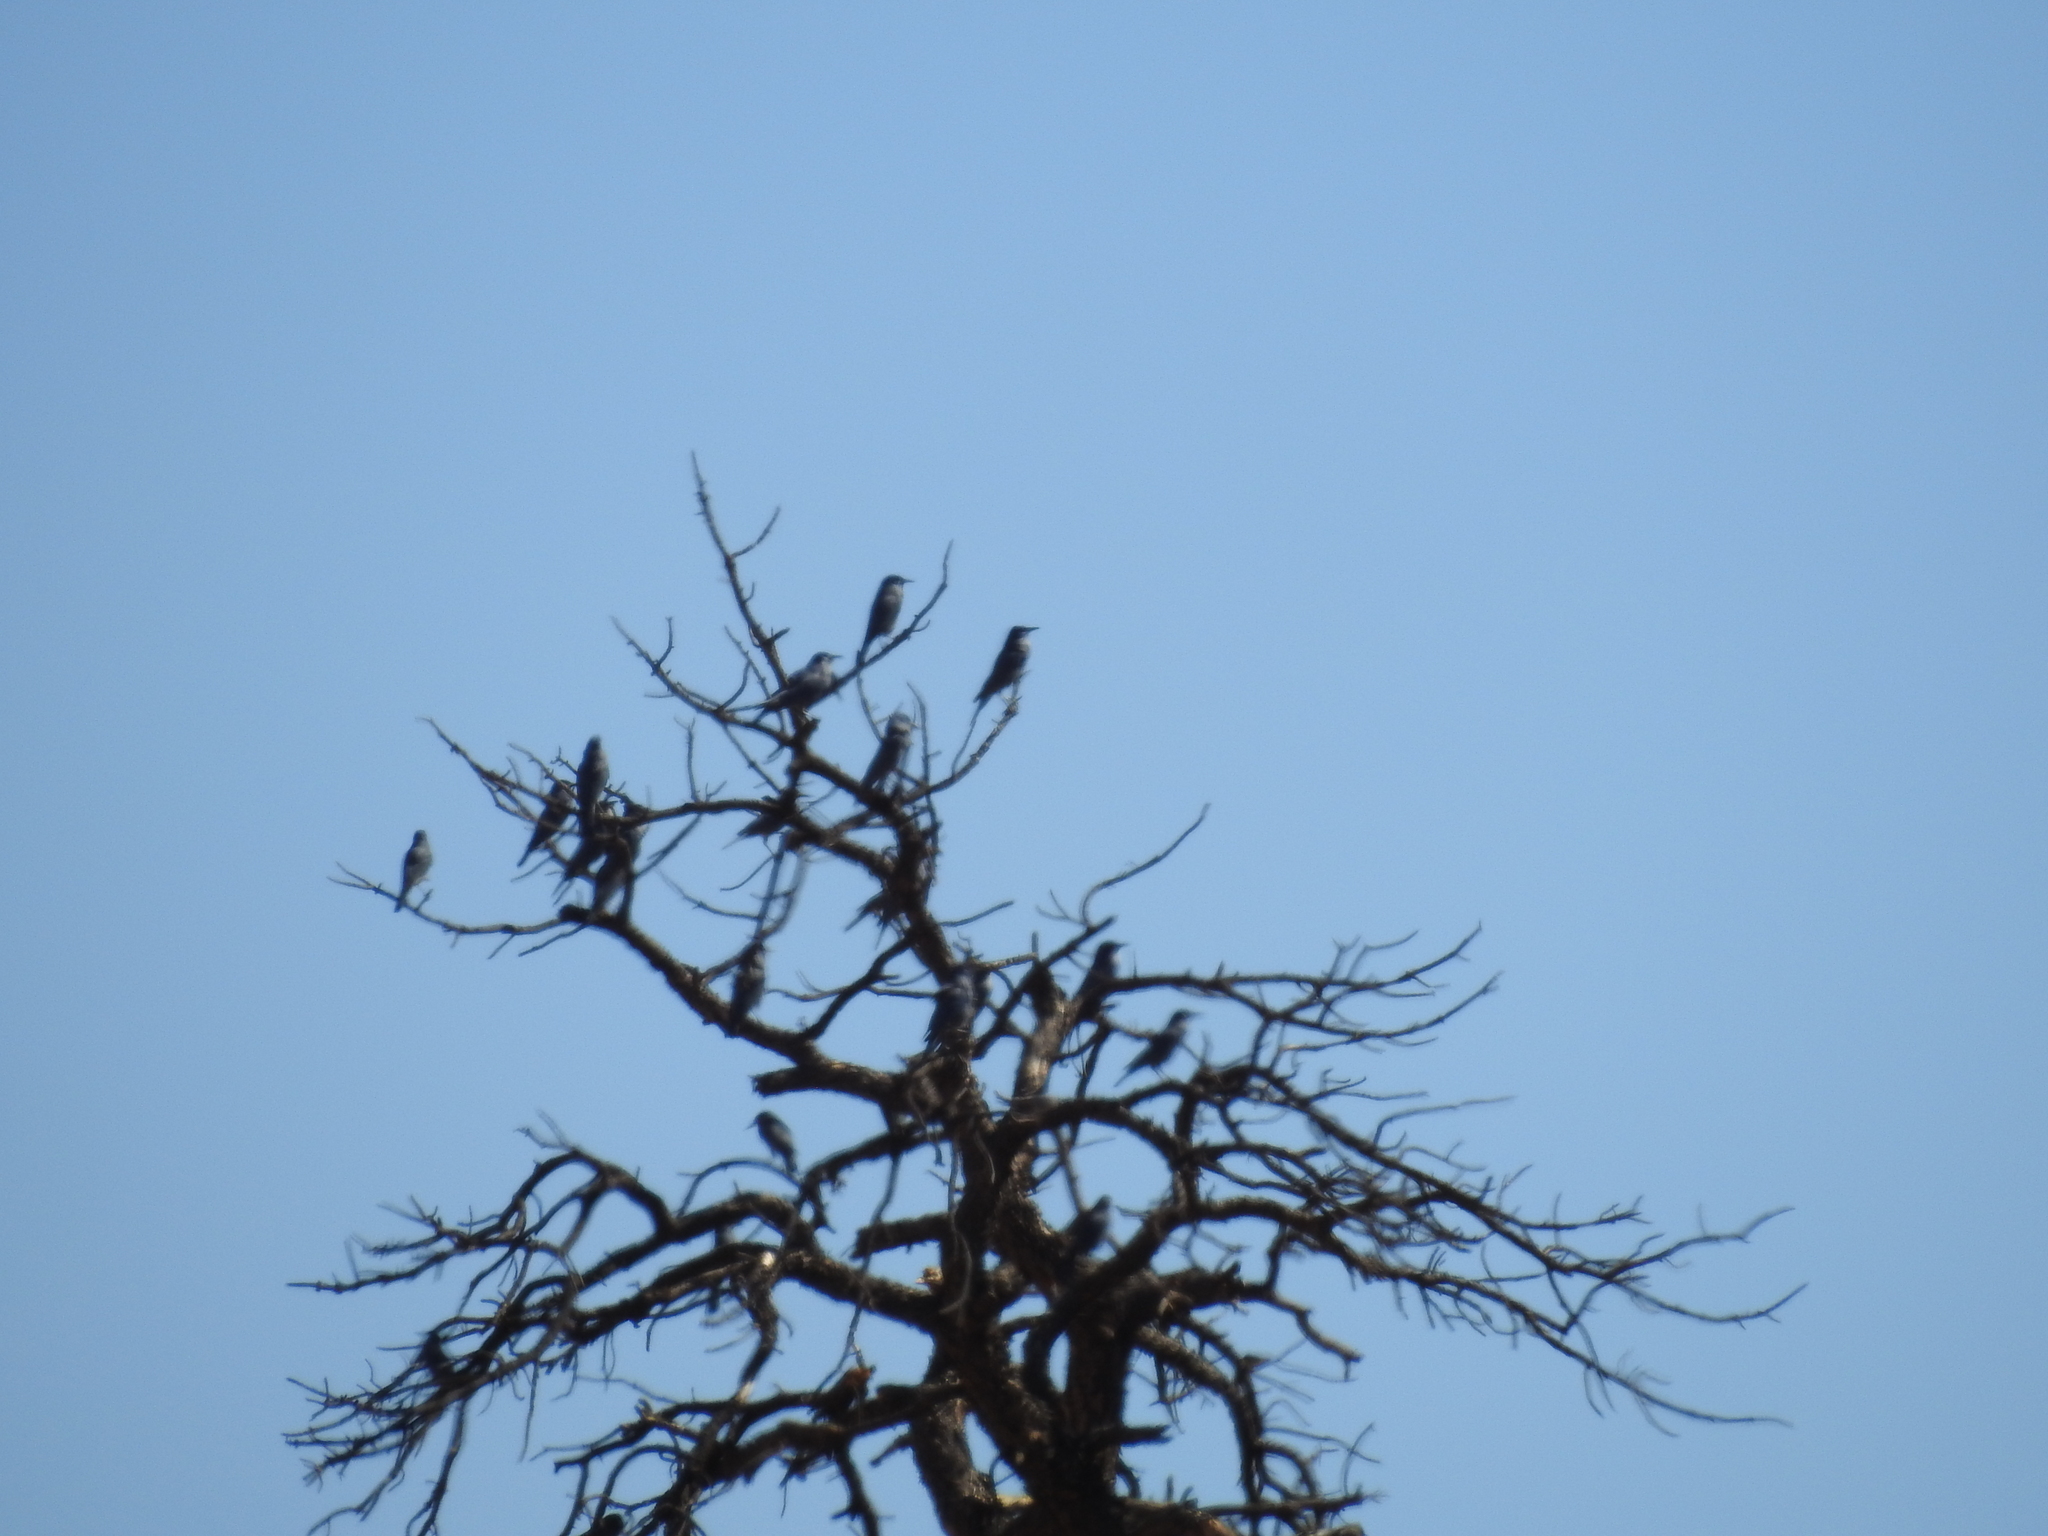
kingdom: Animalia
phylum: Chordata
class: Aves
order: Passeriformes
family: Corvidae
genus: Gymnorhinus
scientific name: Gymnorhinus cyanocephalus
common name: Pinyon jay
